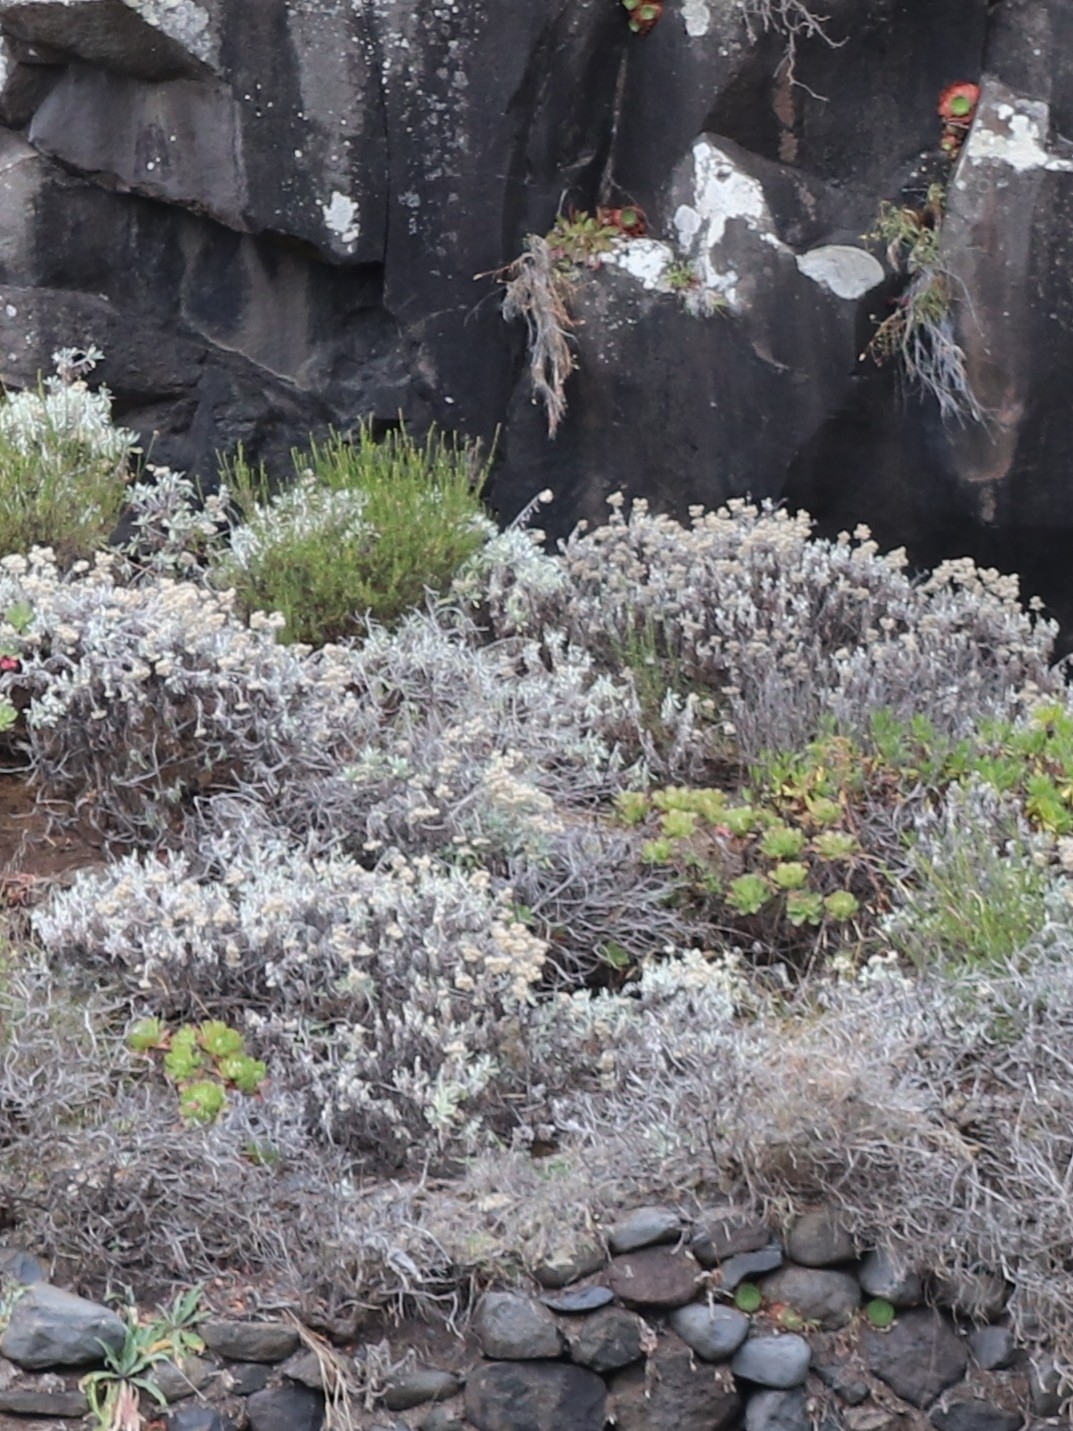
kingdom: Plantae
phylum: Tracheophyta
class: Magnoliopsida
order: Asterales
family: Asteraceae
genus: Helichrysum
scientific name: Helichrysum melaleucum
